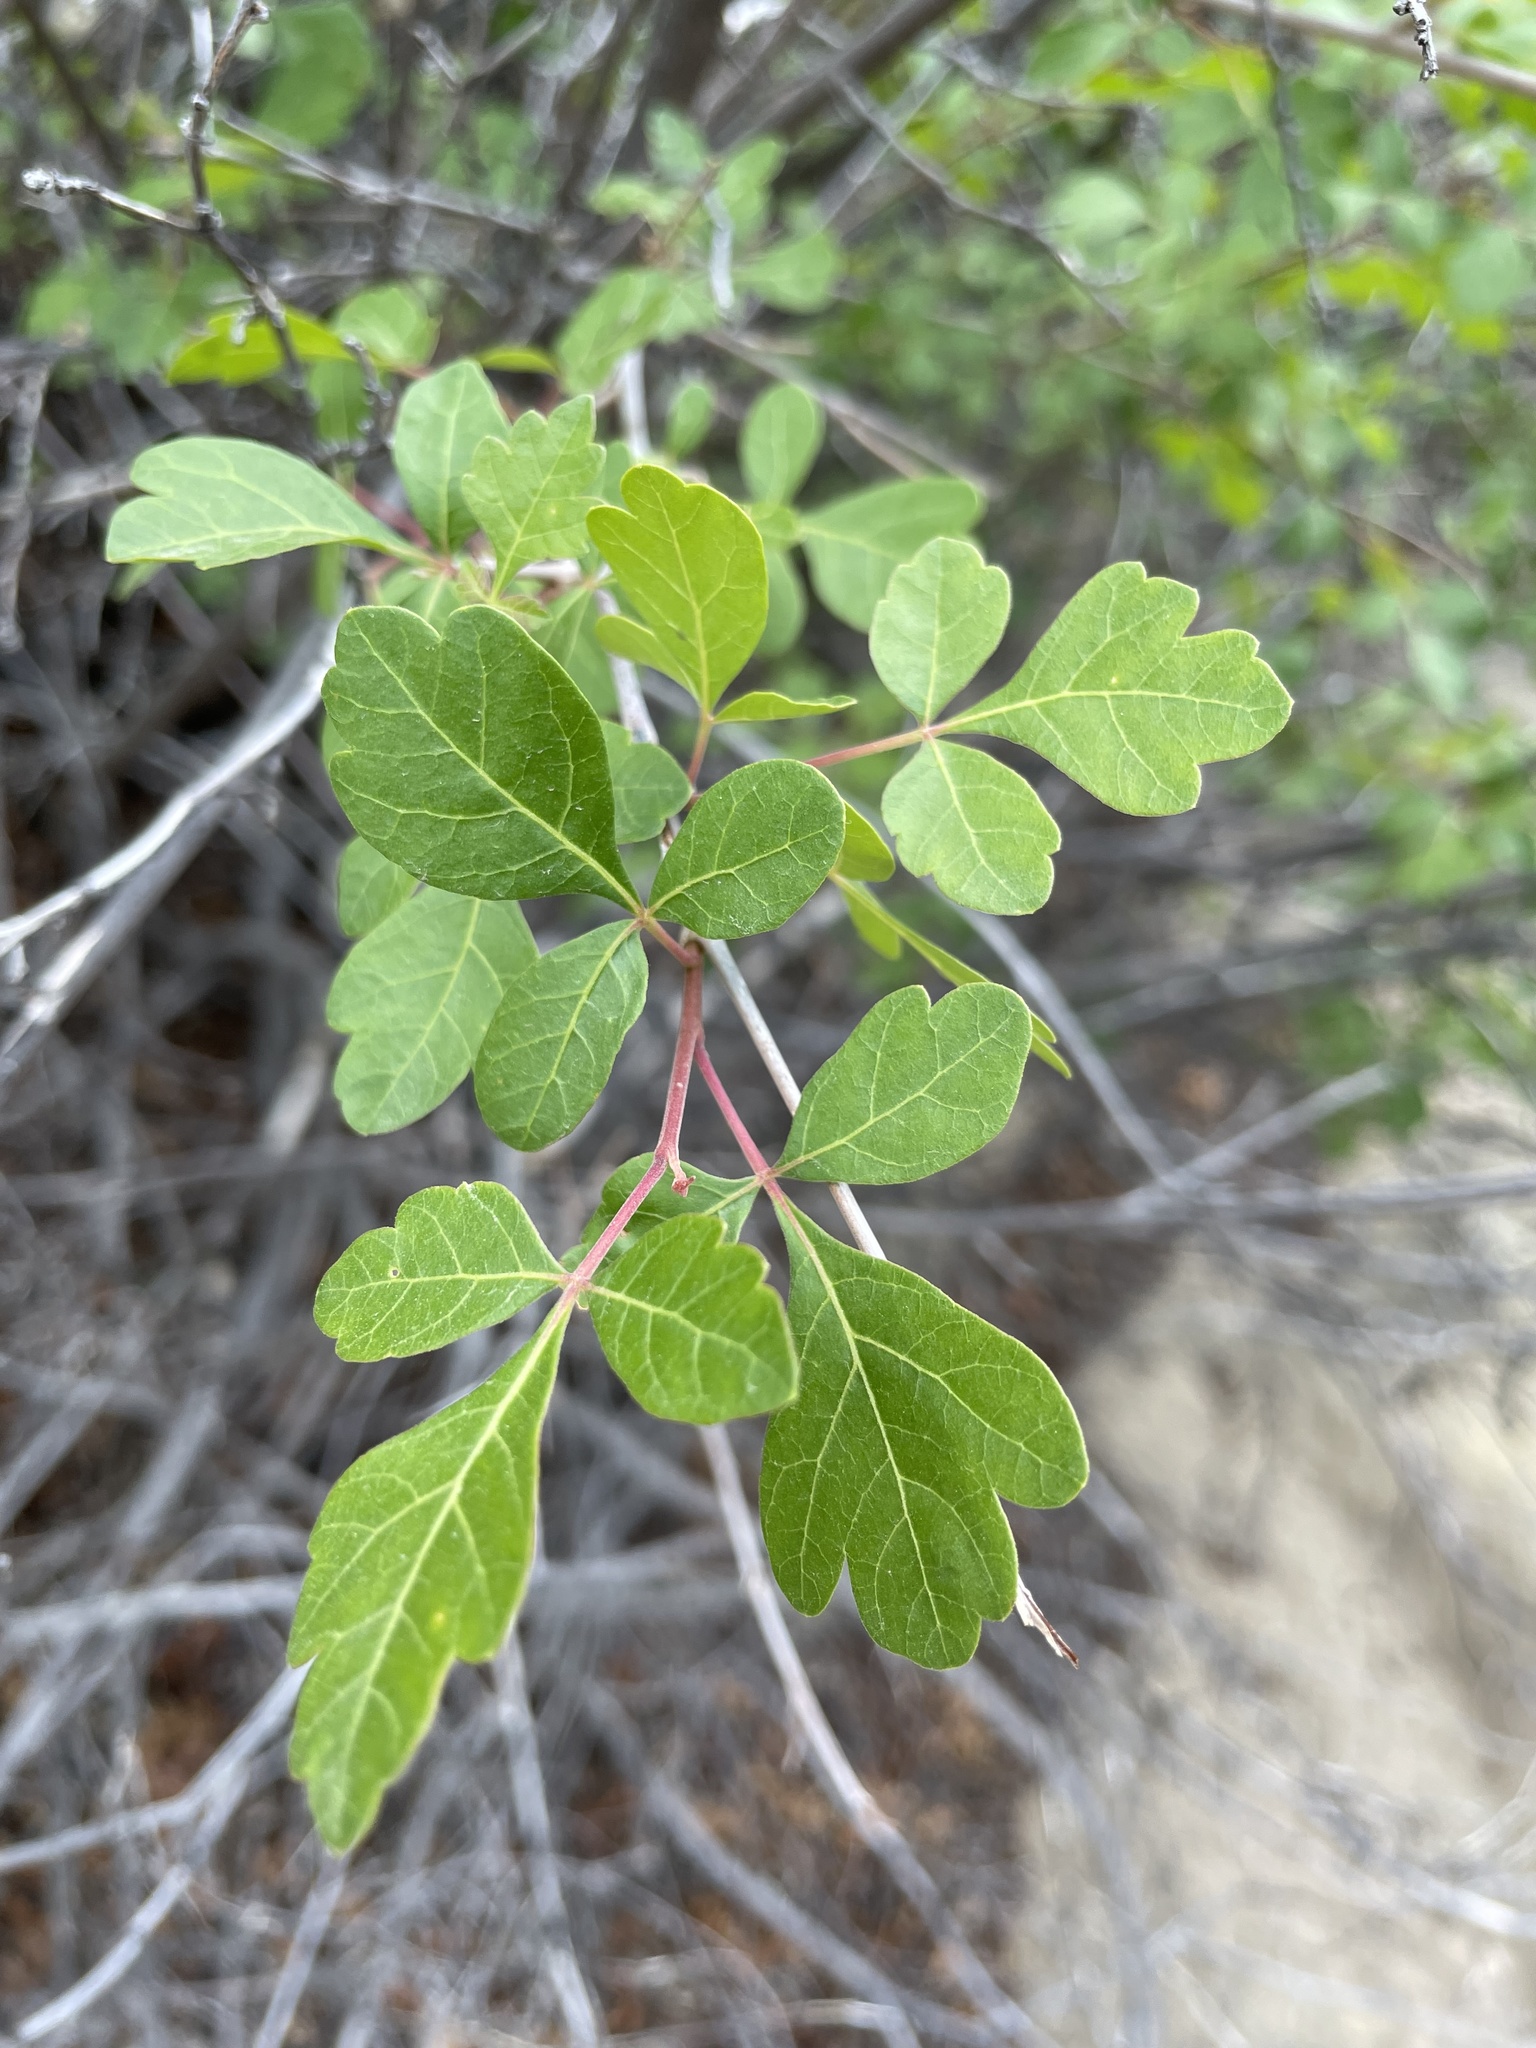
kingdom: Plantae
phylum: Tracheophyta
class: Magnoliopsida
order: Sapindales
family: Anacardiaceae
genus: Rhus
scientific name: Rhus trilobata
